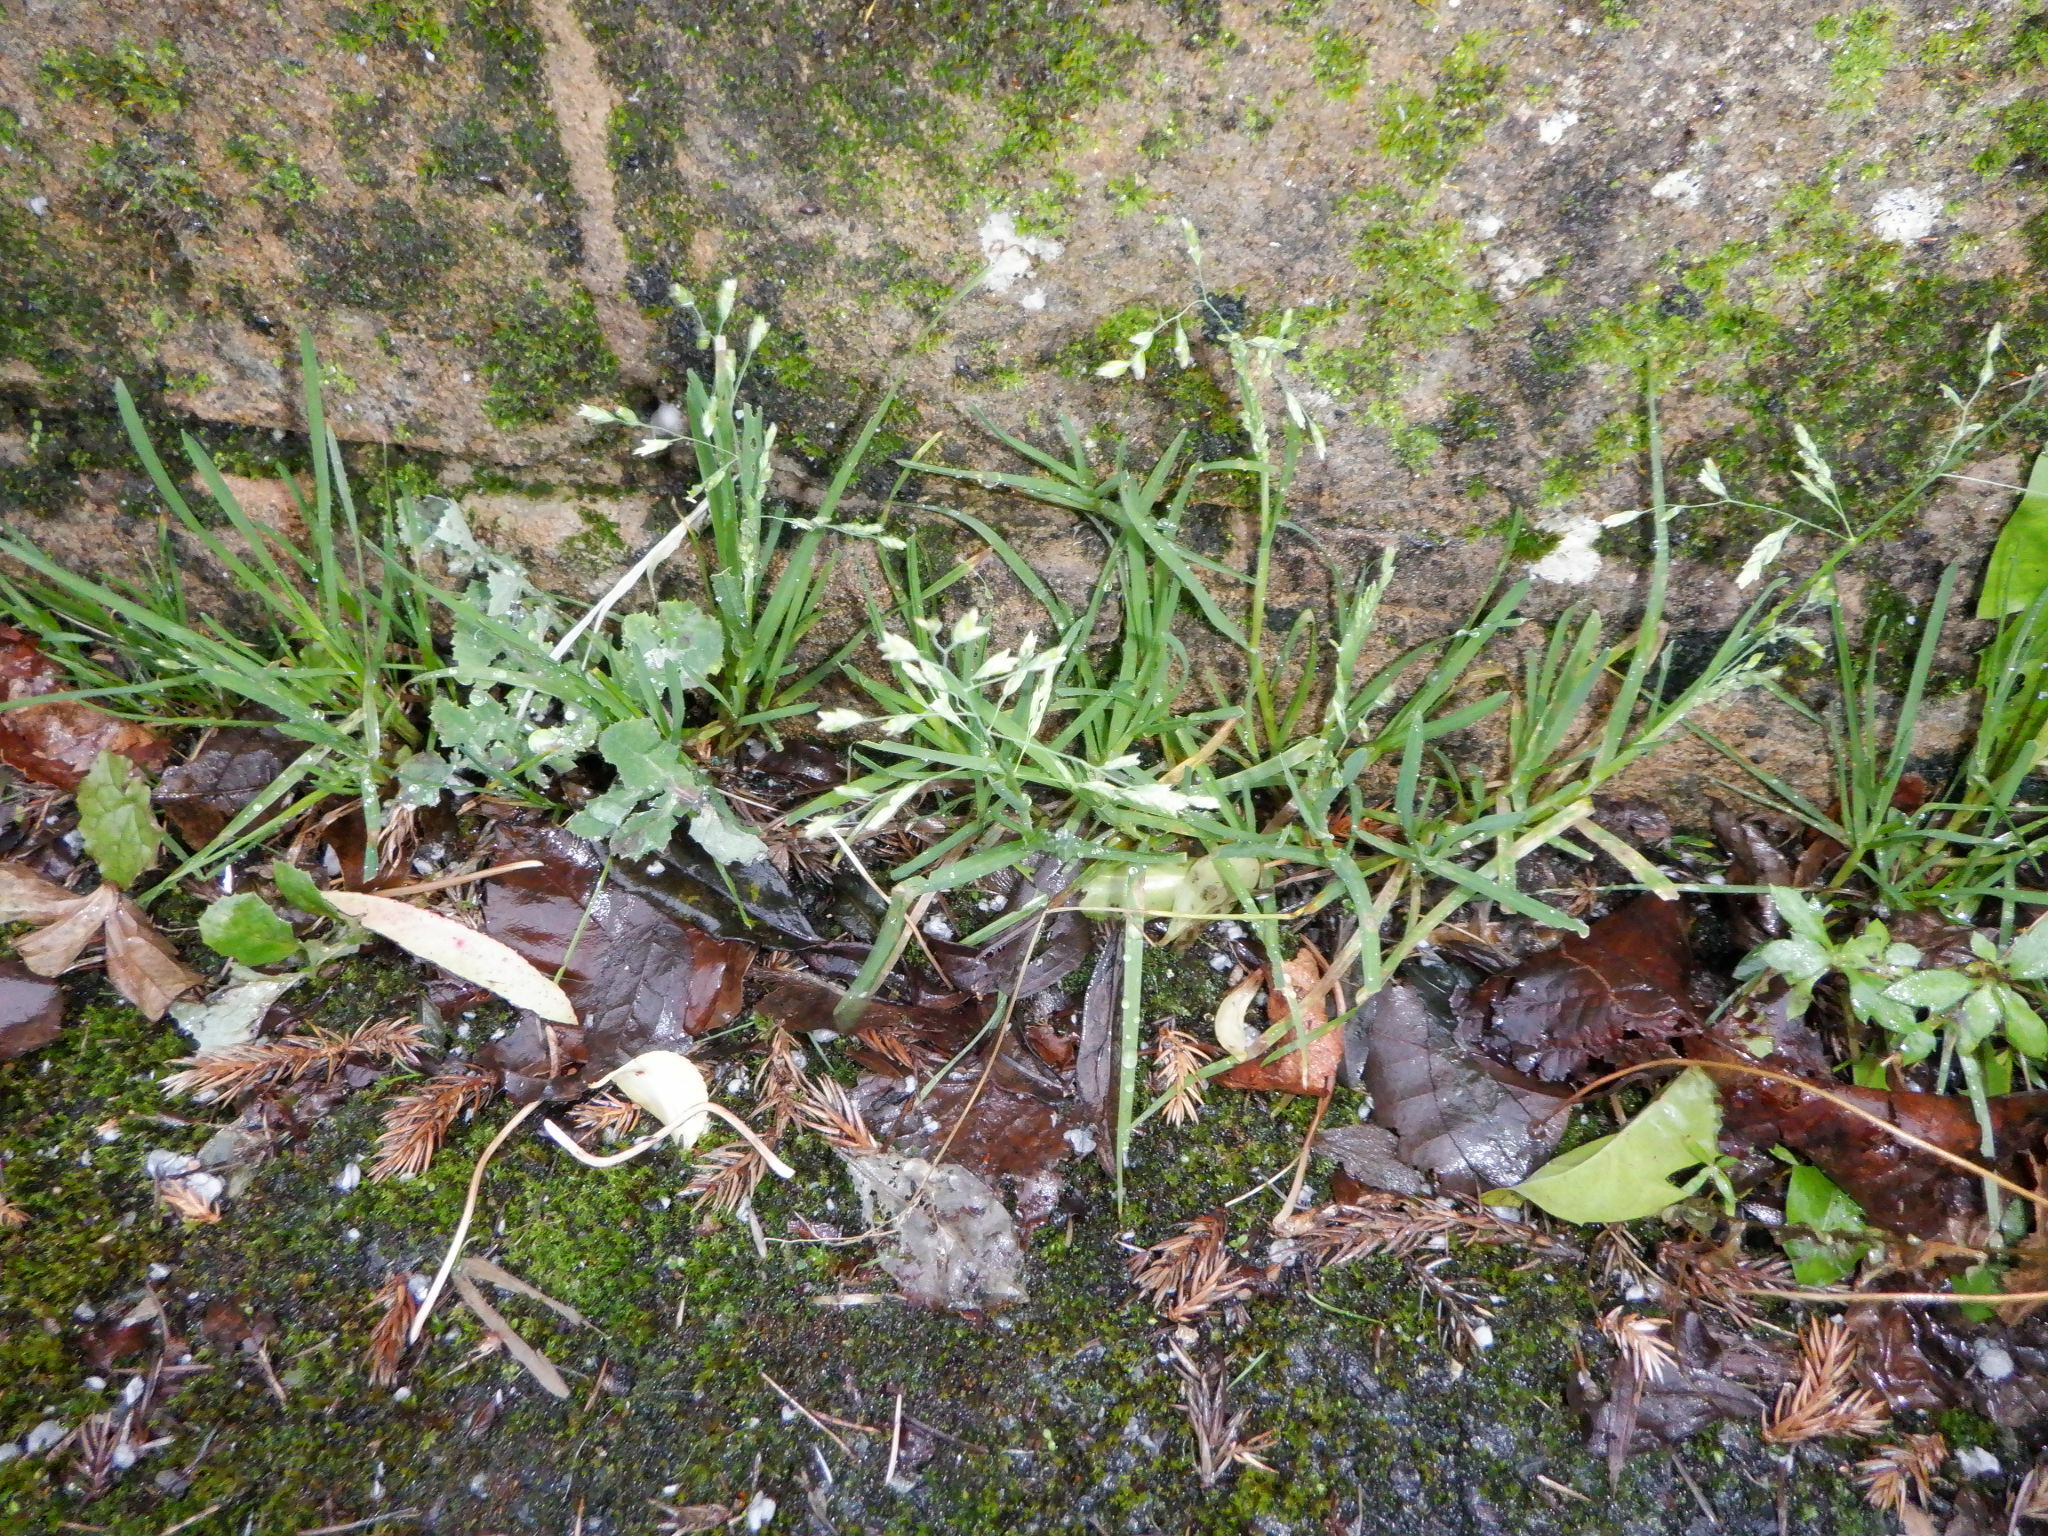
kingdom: Plantae
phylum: Tracheophyta
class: Liliopsida
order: Poales
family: Poaceae
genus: Poa
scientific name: Poa annua
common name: Annual bluegrass
